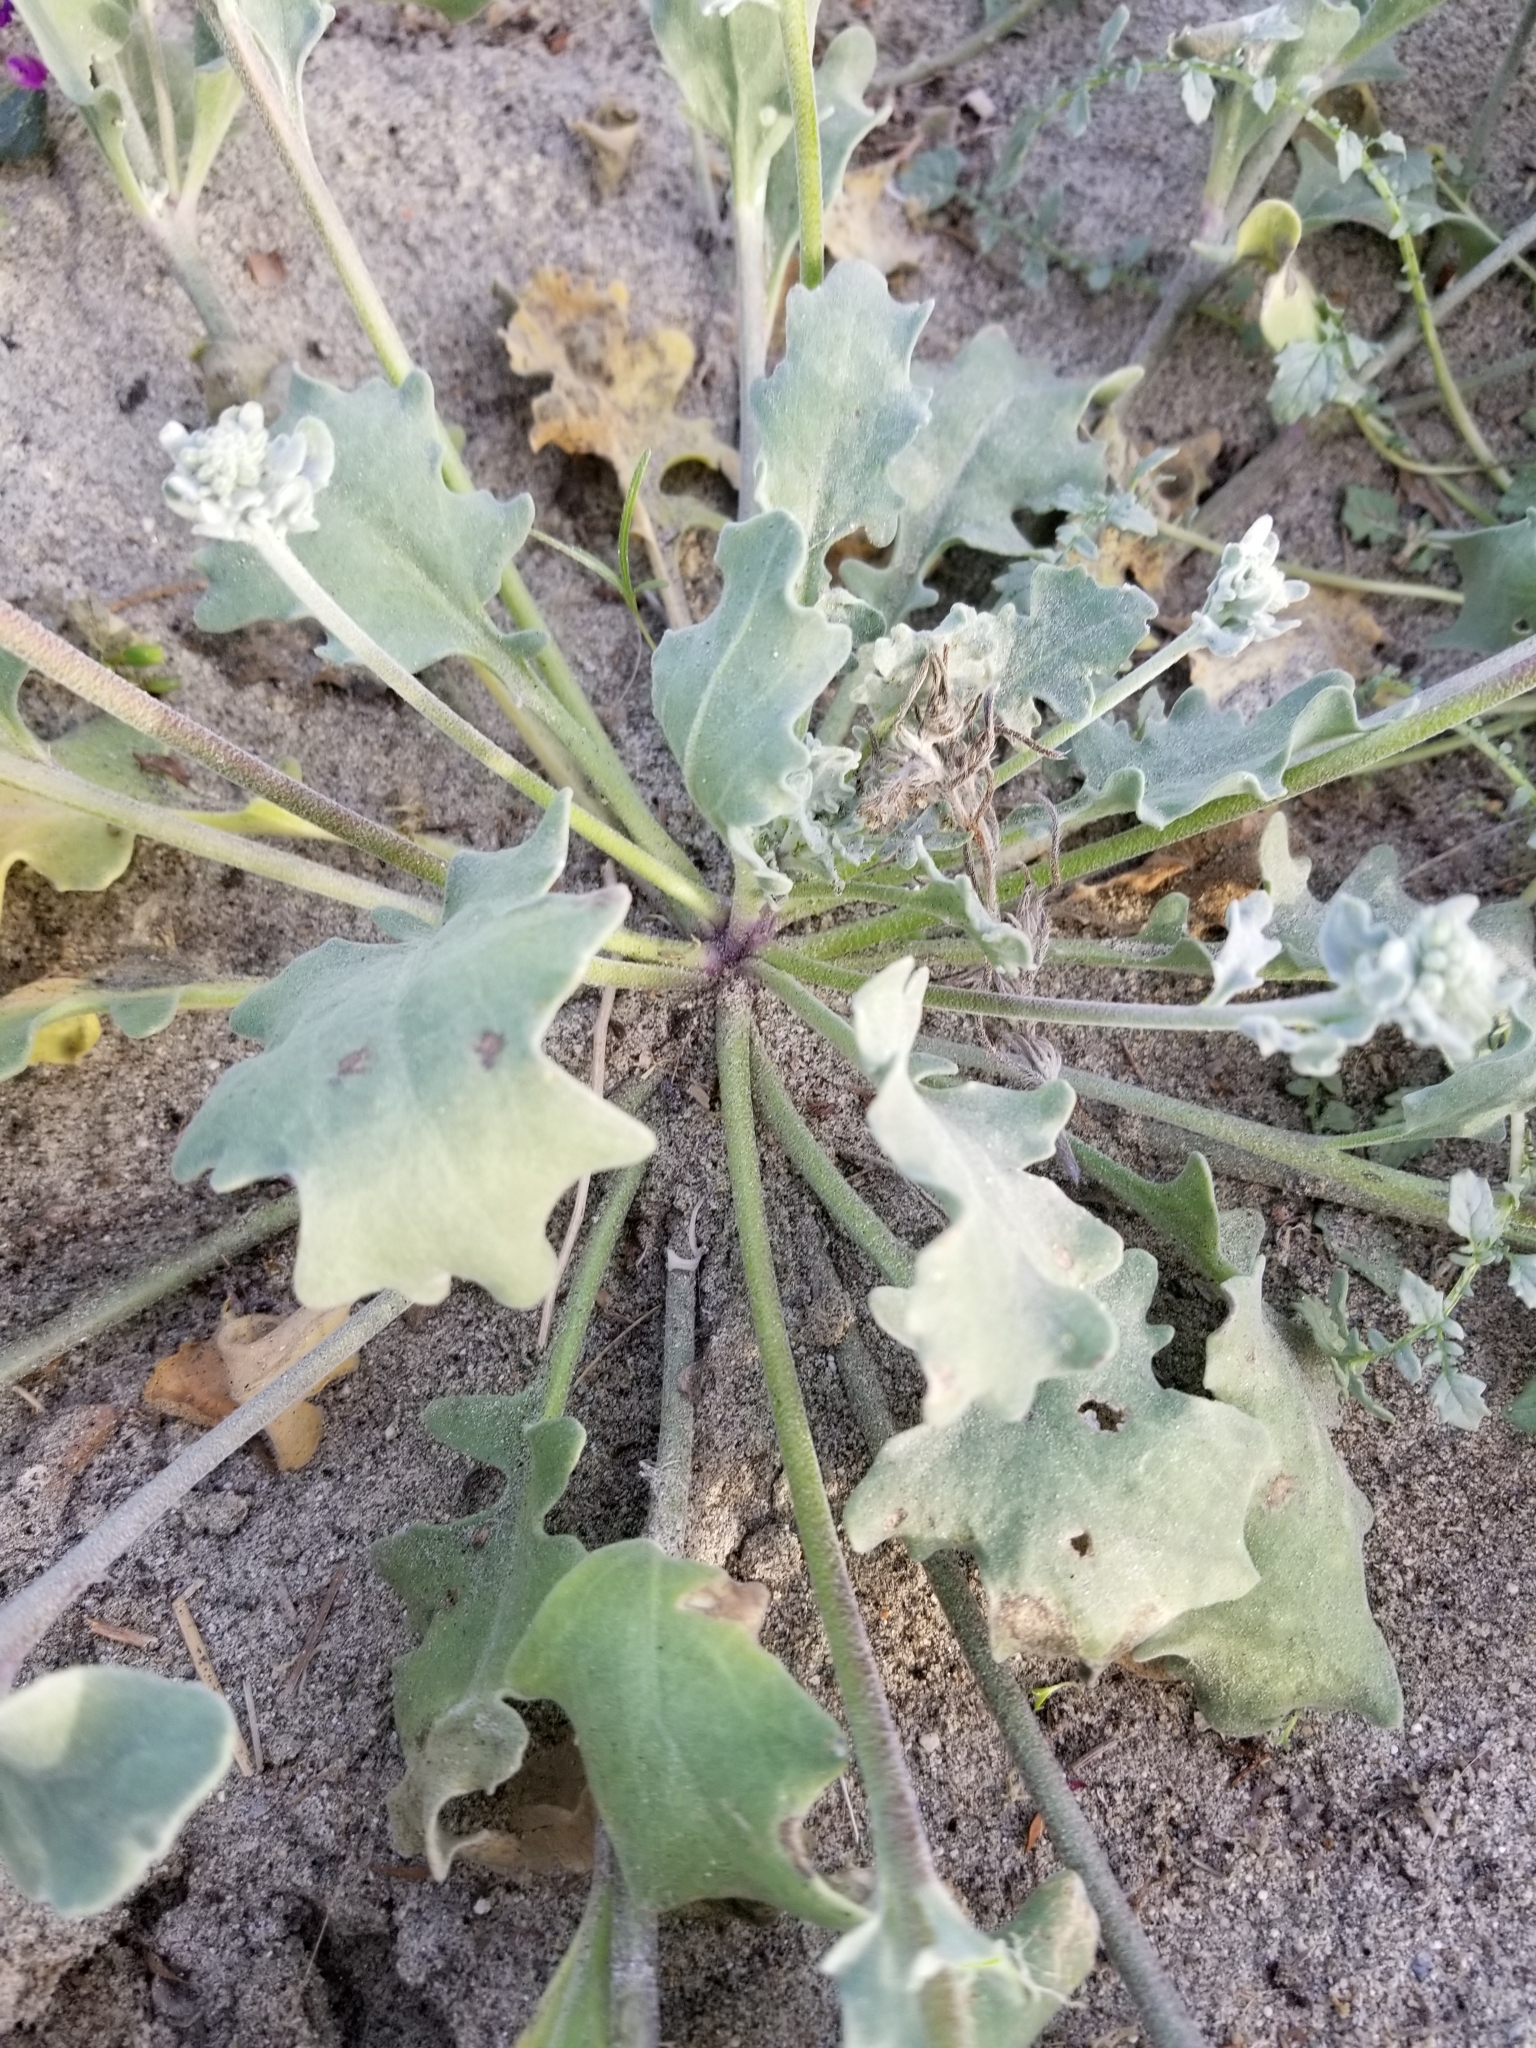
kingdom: Plantae
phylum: Tracheophyta
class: Magnoliopsida
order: Brassicales
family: Brassicaceae
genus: Dithyrea
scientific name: Dithyrea californica
